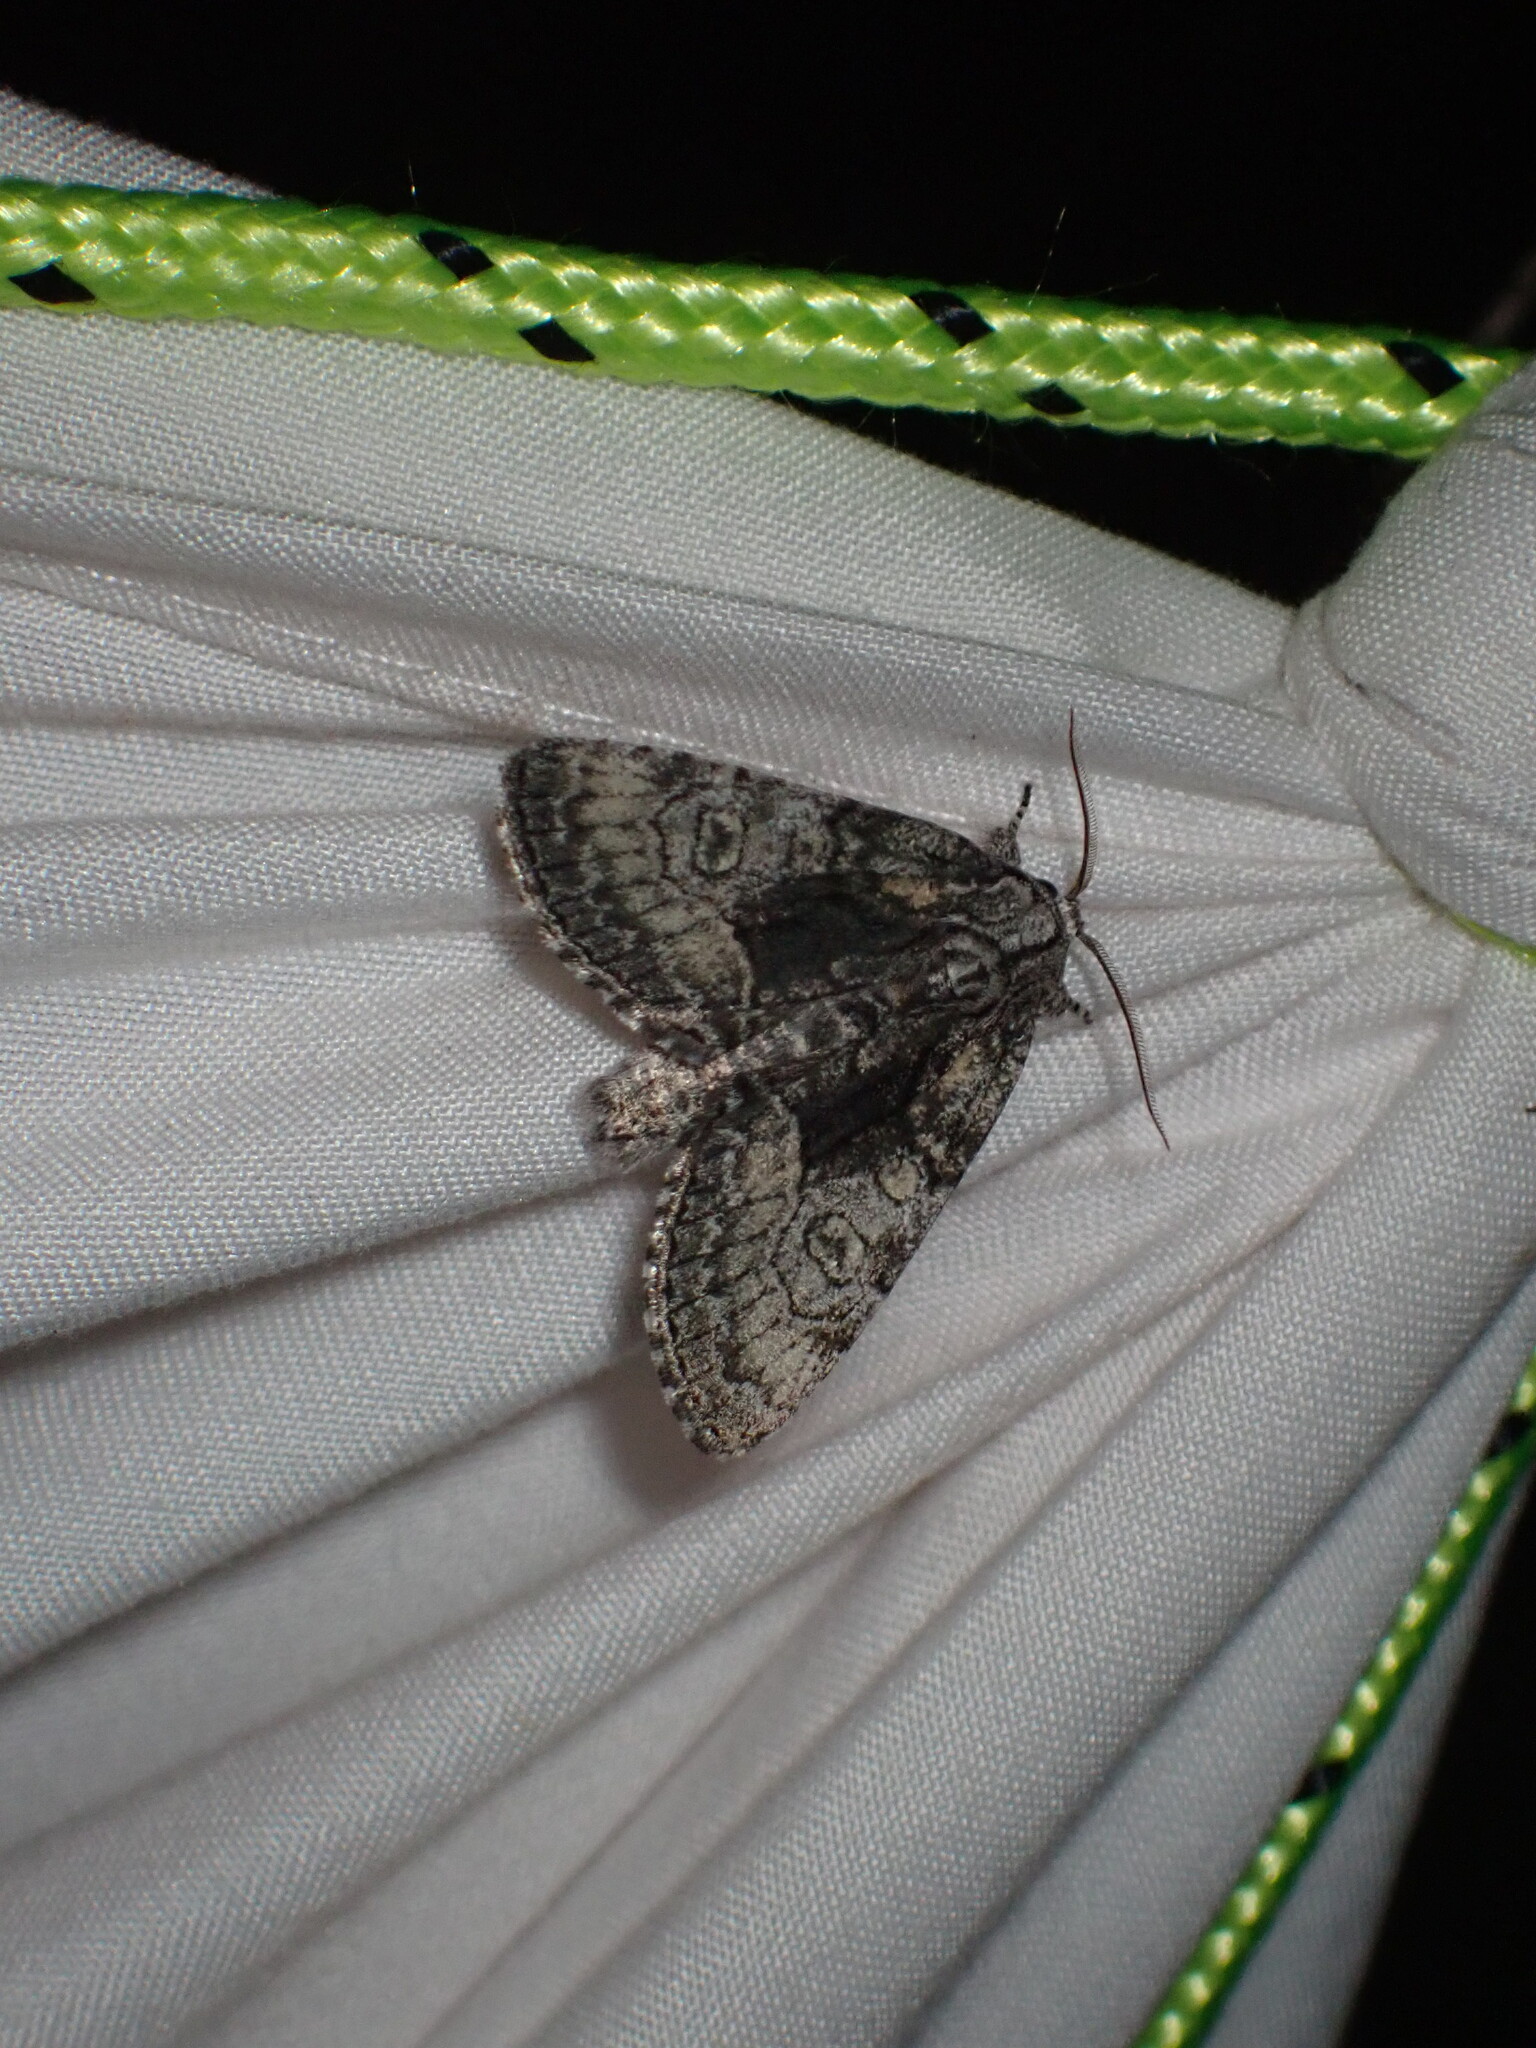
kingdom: Animalia
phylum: Arthropoda
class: Insecta
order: Lepidoptera
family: Noctuidae
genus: Raphia
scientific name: Raphia frater
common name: Brother
